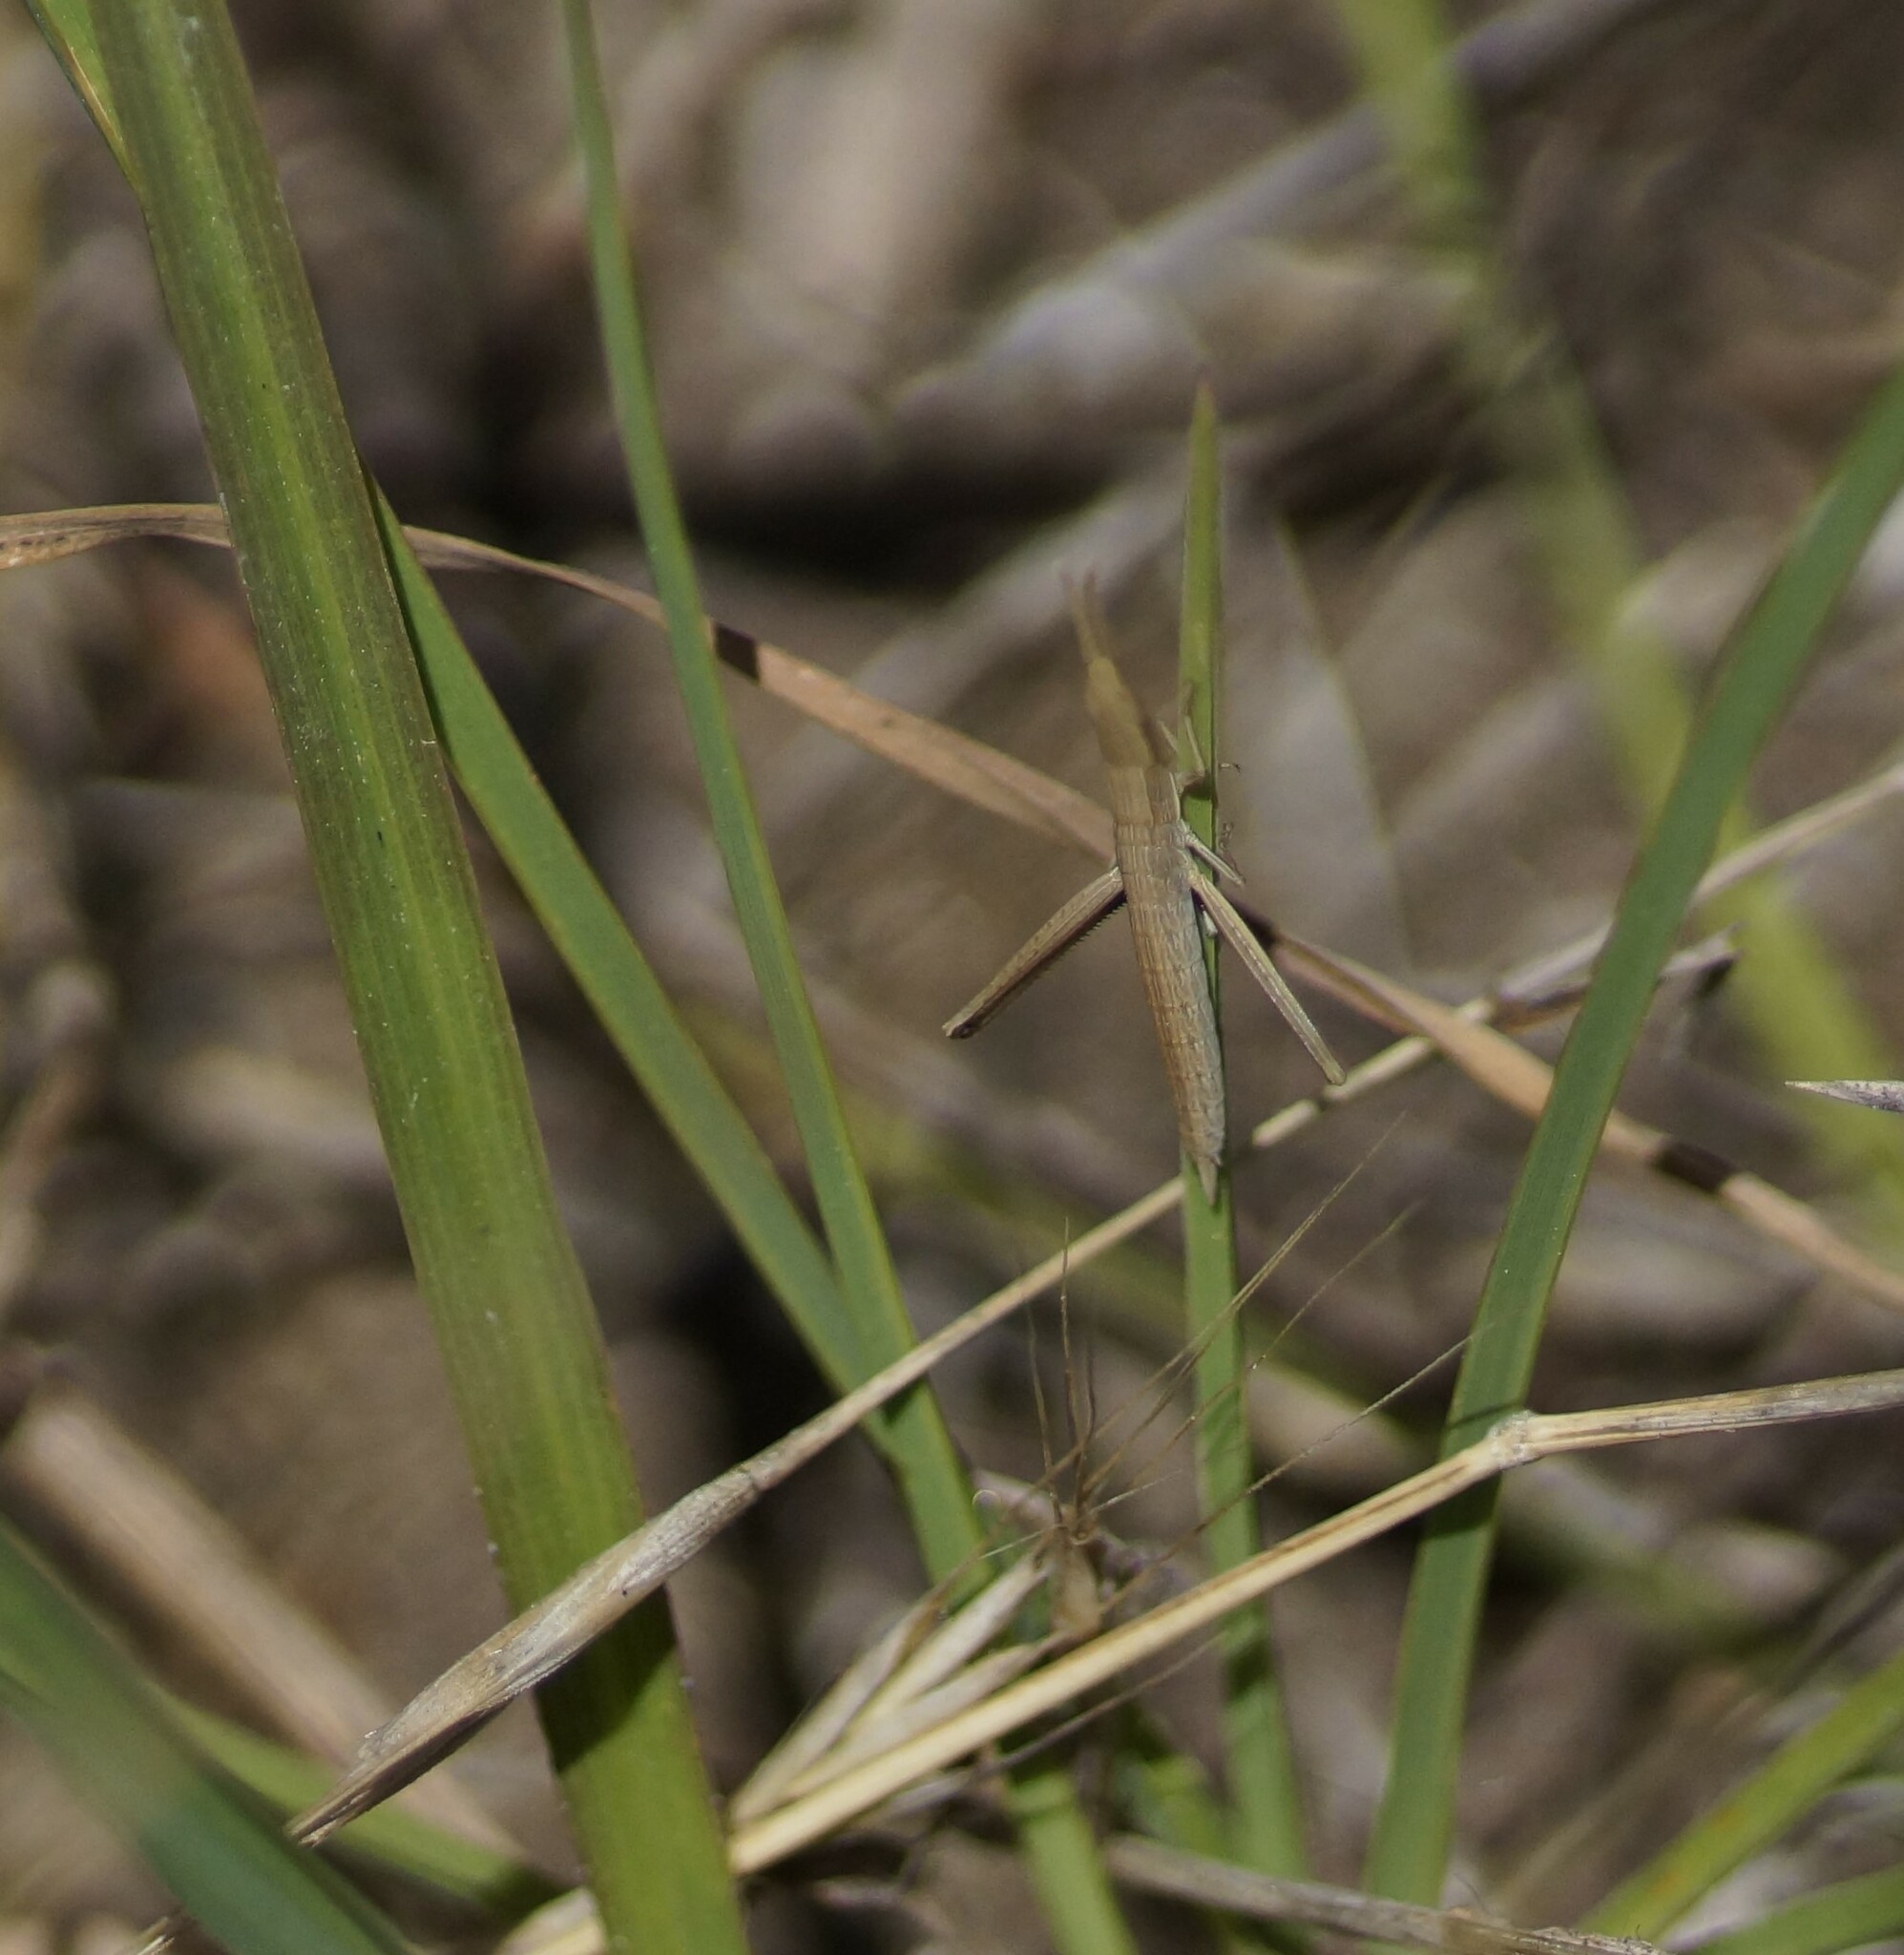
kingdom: Animalia
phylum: Arthropoda
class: Insecta
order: Orthoptera
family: Acrididae
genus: Acrida
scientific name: Acrida conica
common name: Giant green slantface
